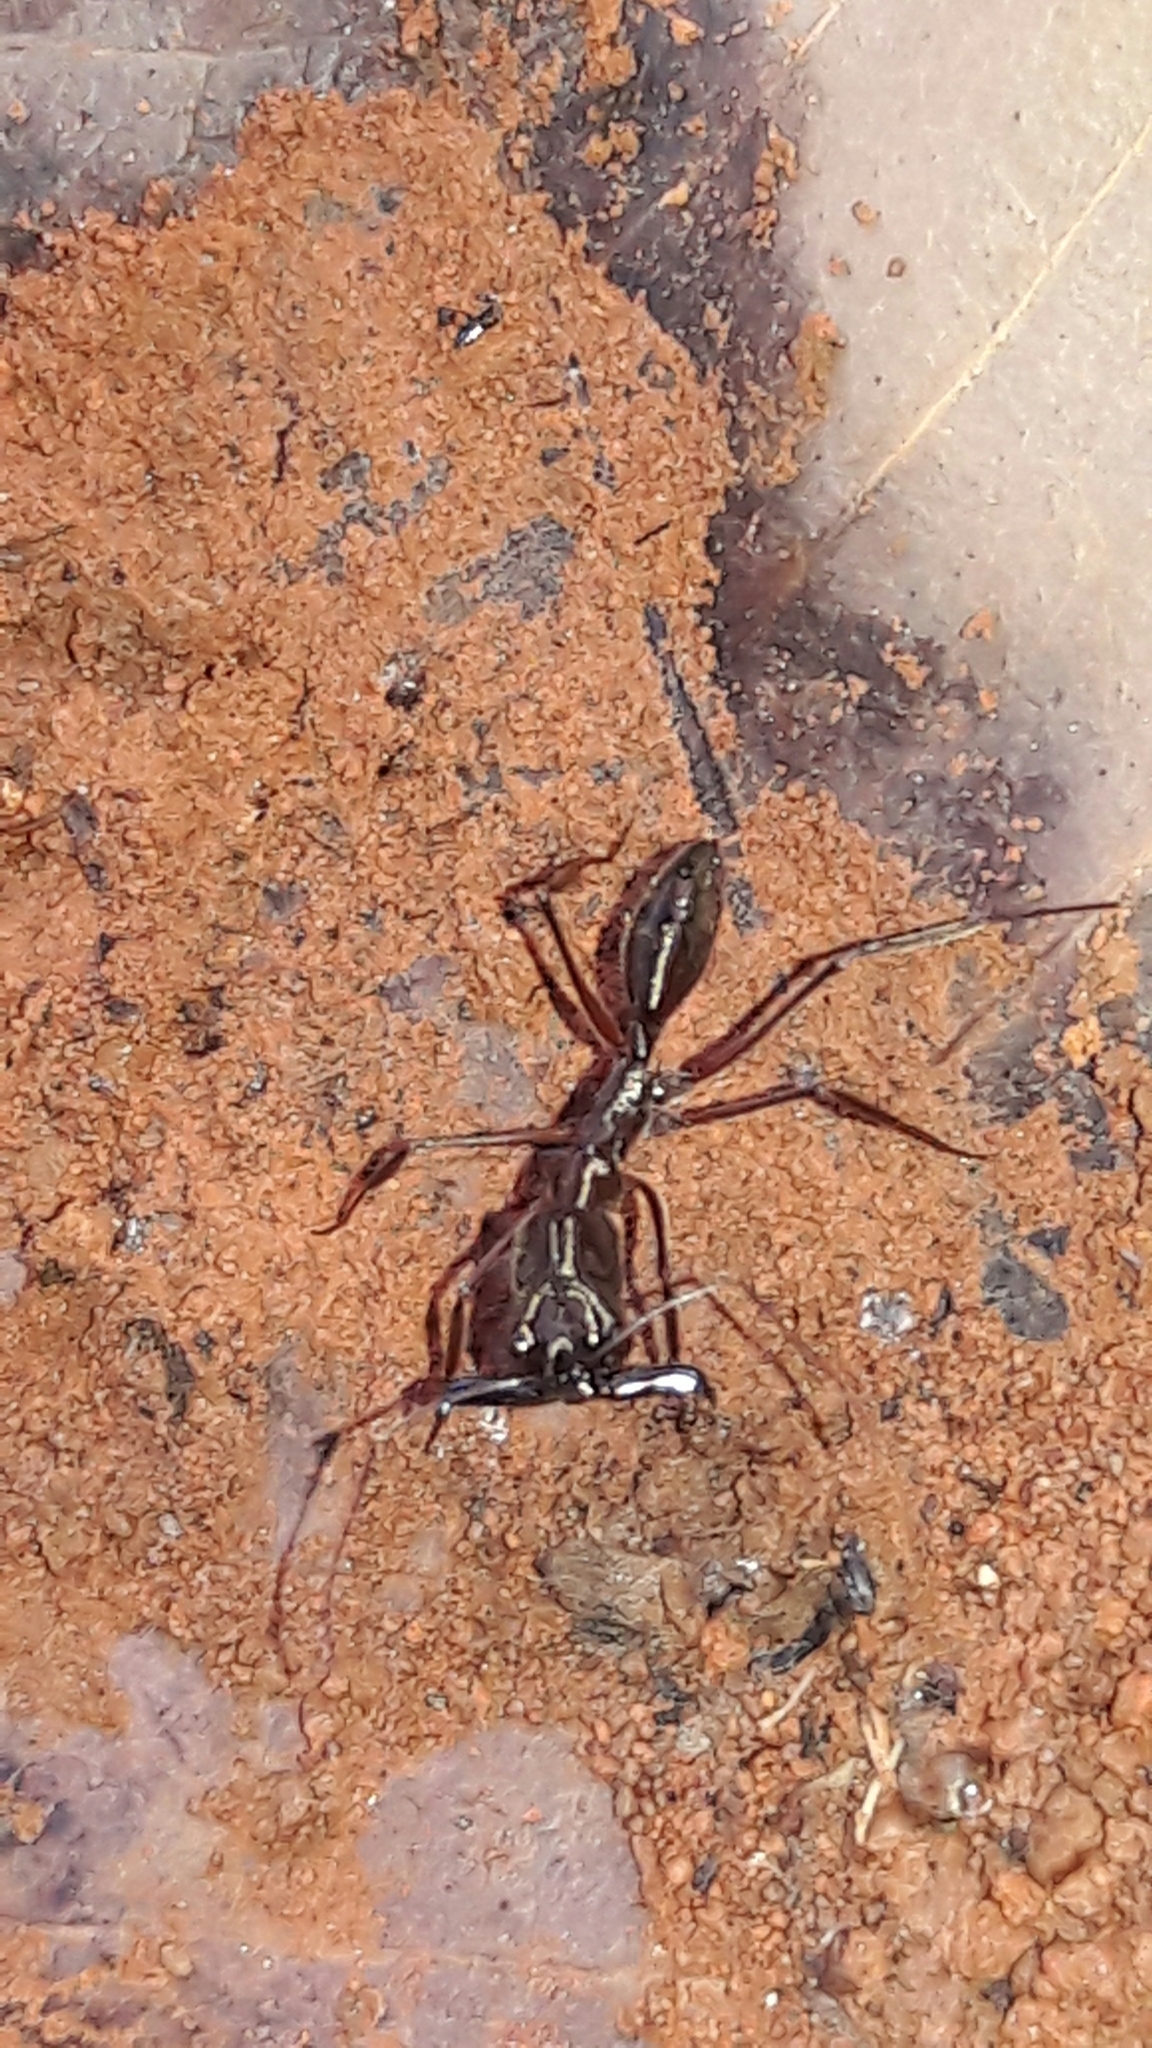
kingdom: Animalia
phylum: Arthropoda
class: Insecta
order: Hymenoptera
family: Formicidae
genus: Odontomachus
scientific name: Odontomachus chelifer
